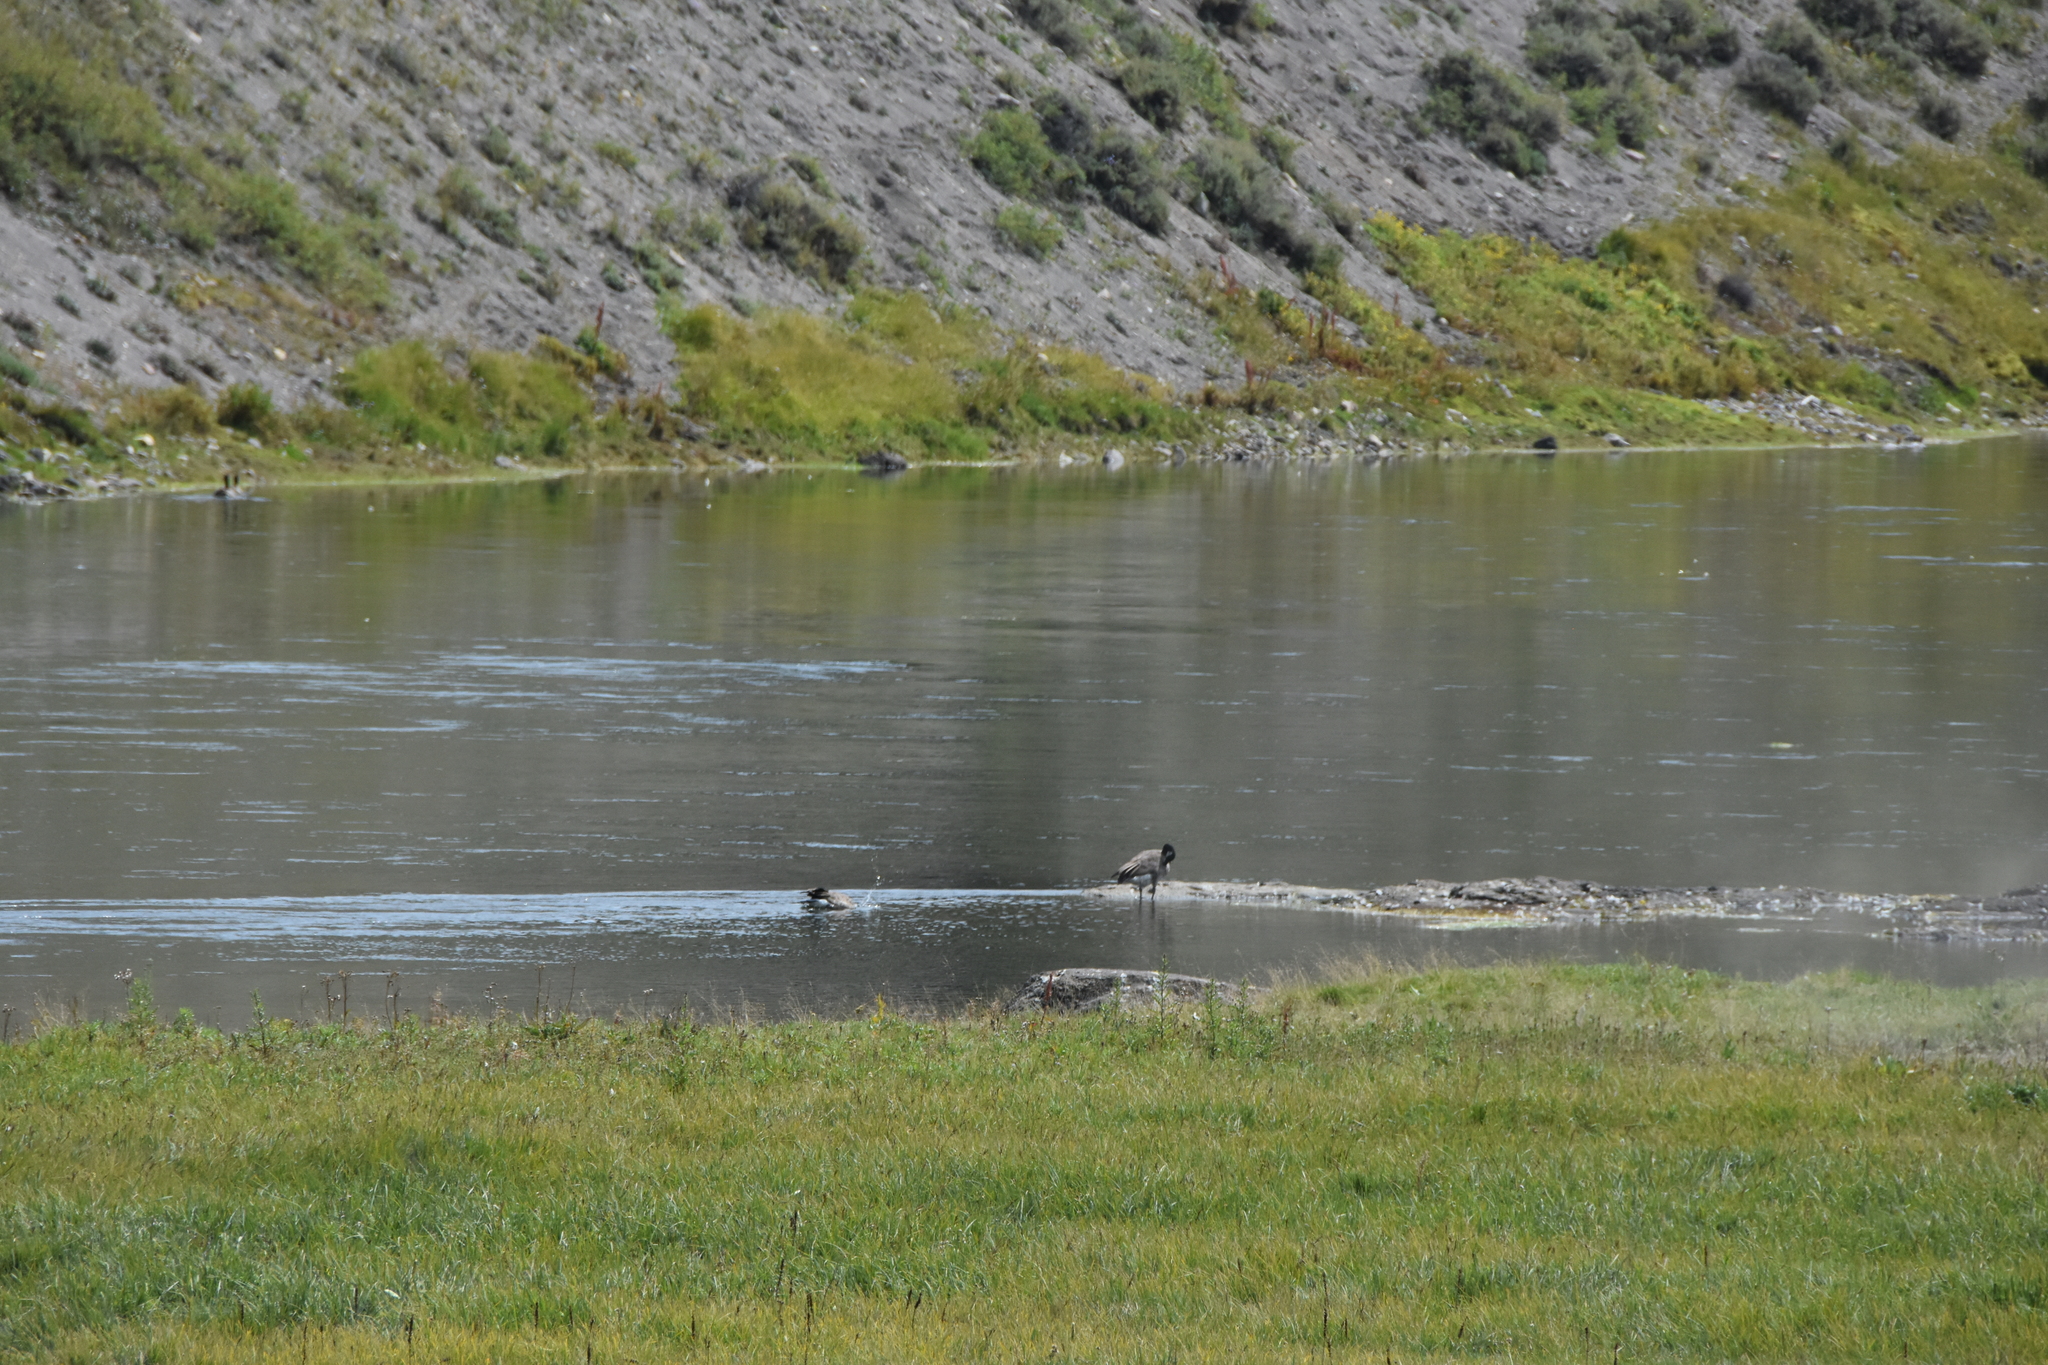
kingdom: Animalia
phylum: Chordata
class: Aves
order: Anseriformes
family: Anatidae
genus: Branta
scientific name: Branta canadensis
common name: Canada goose
